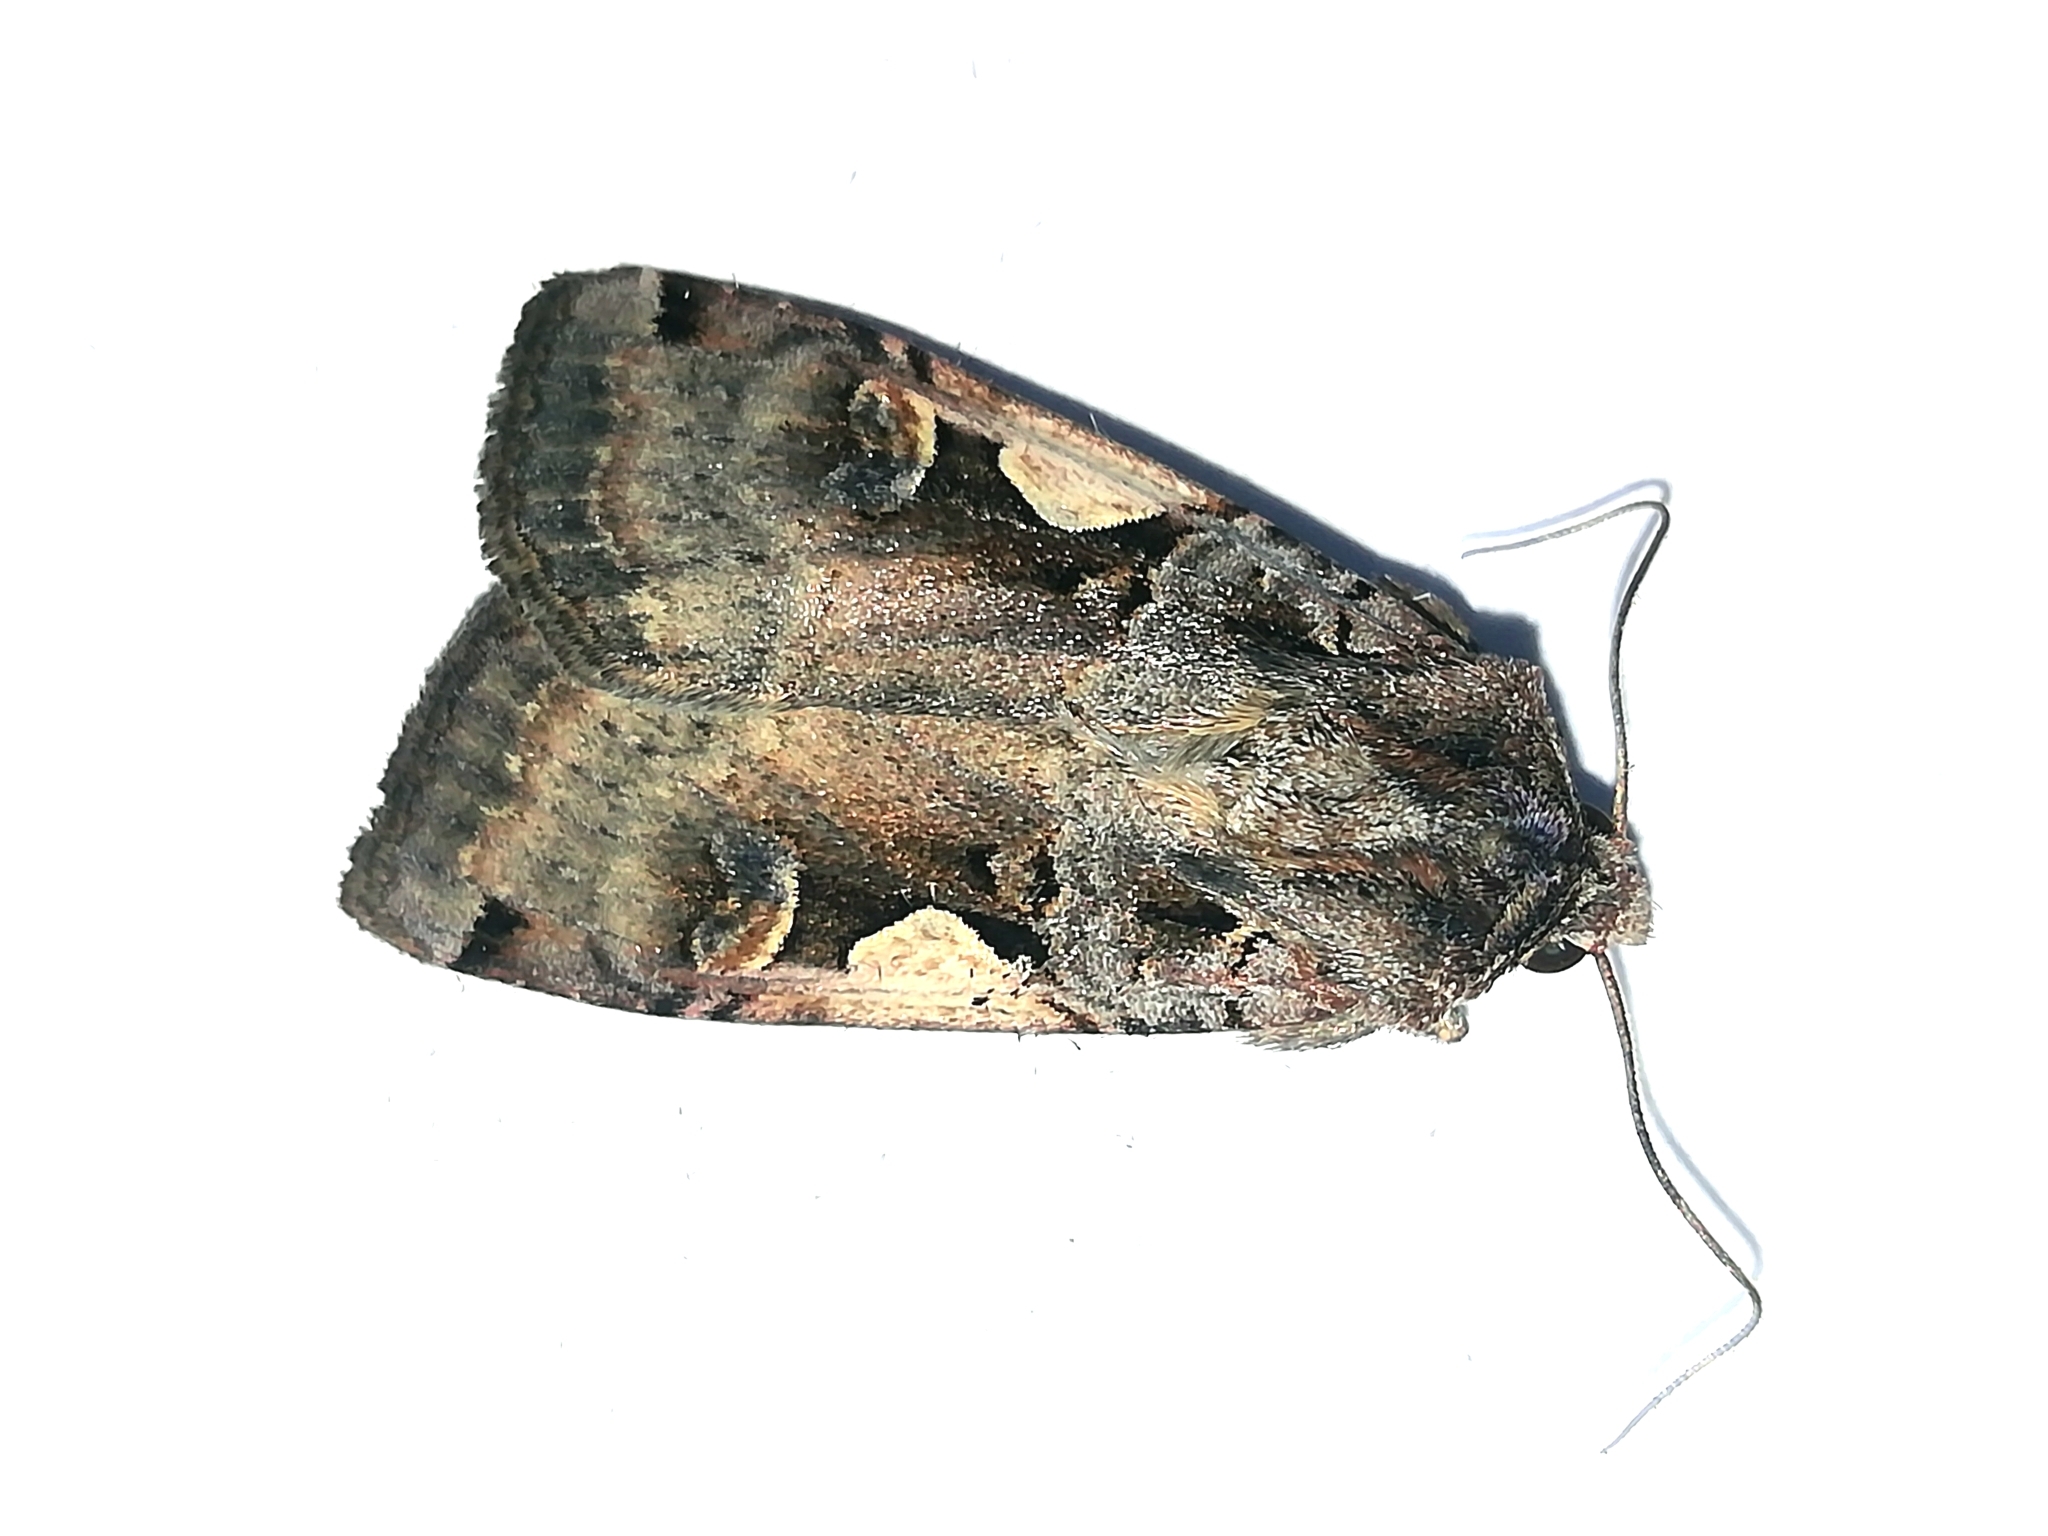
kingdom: Animalia
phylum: Arthropoda
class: Insecta
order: Lepidoptera
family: Noctuidae
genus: Xestia
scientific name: Xestia c-nigrum
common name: Setaceous hebrew character
